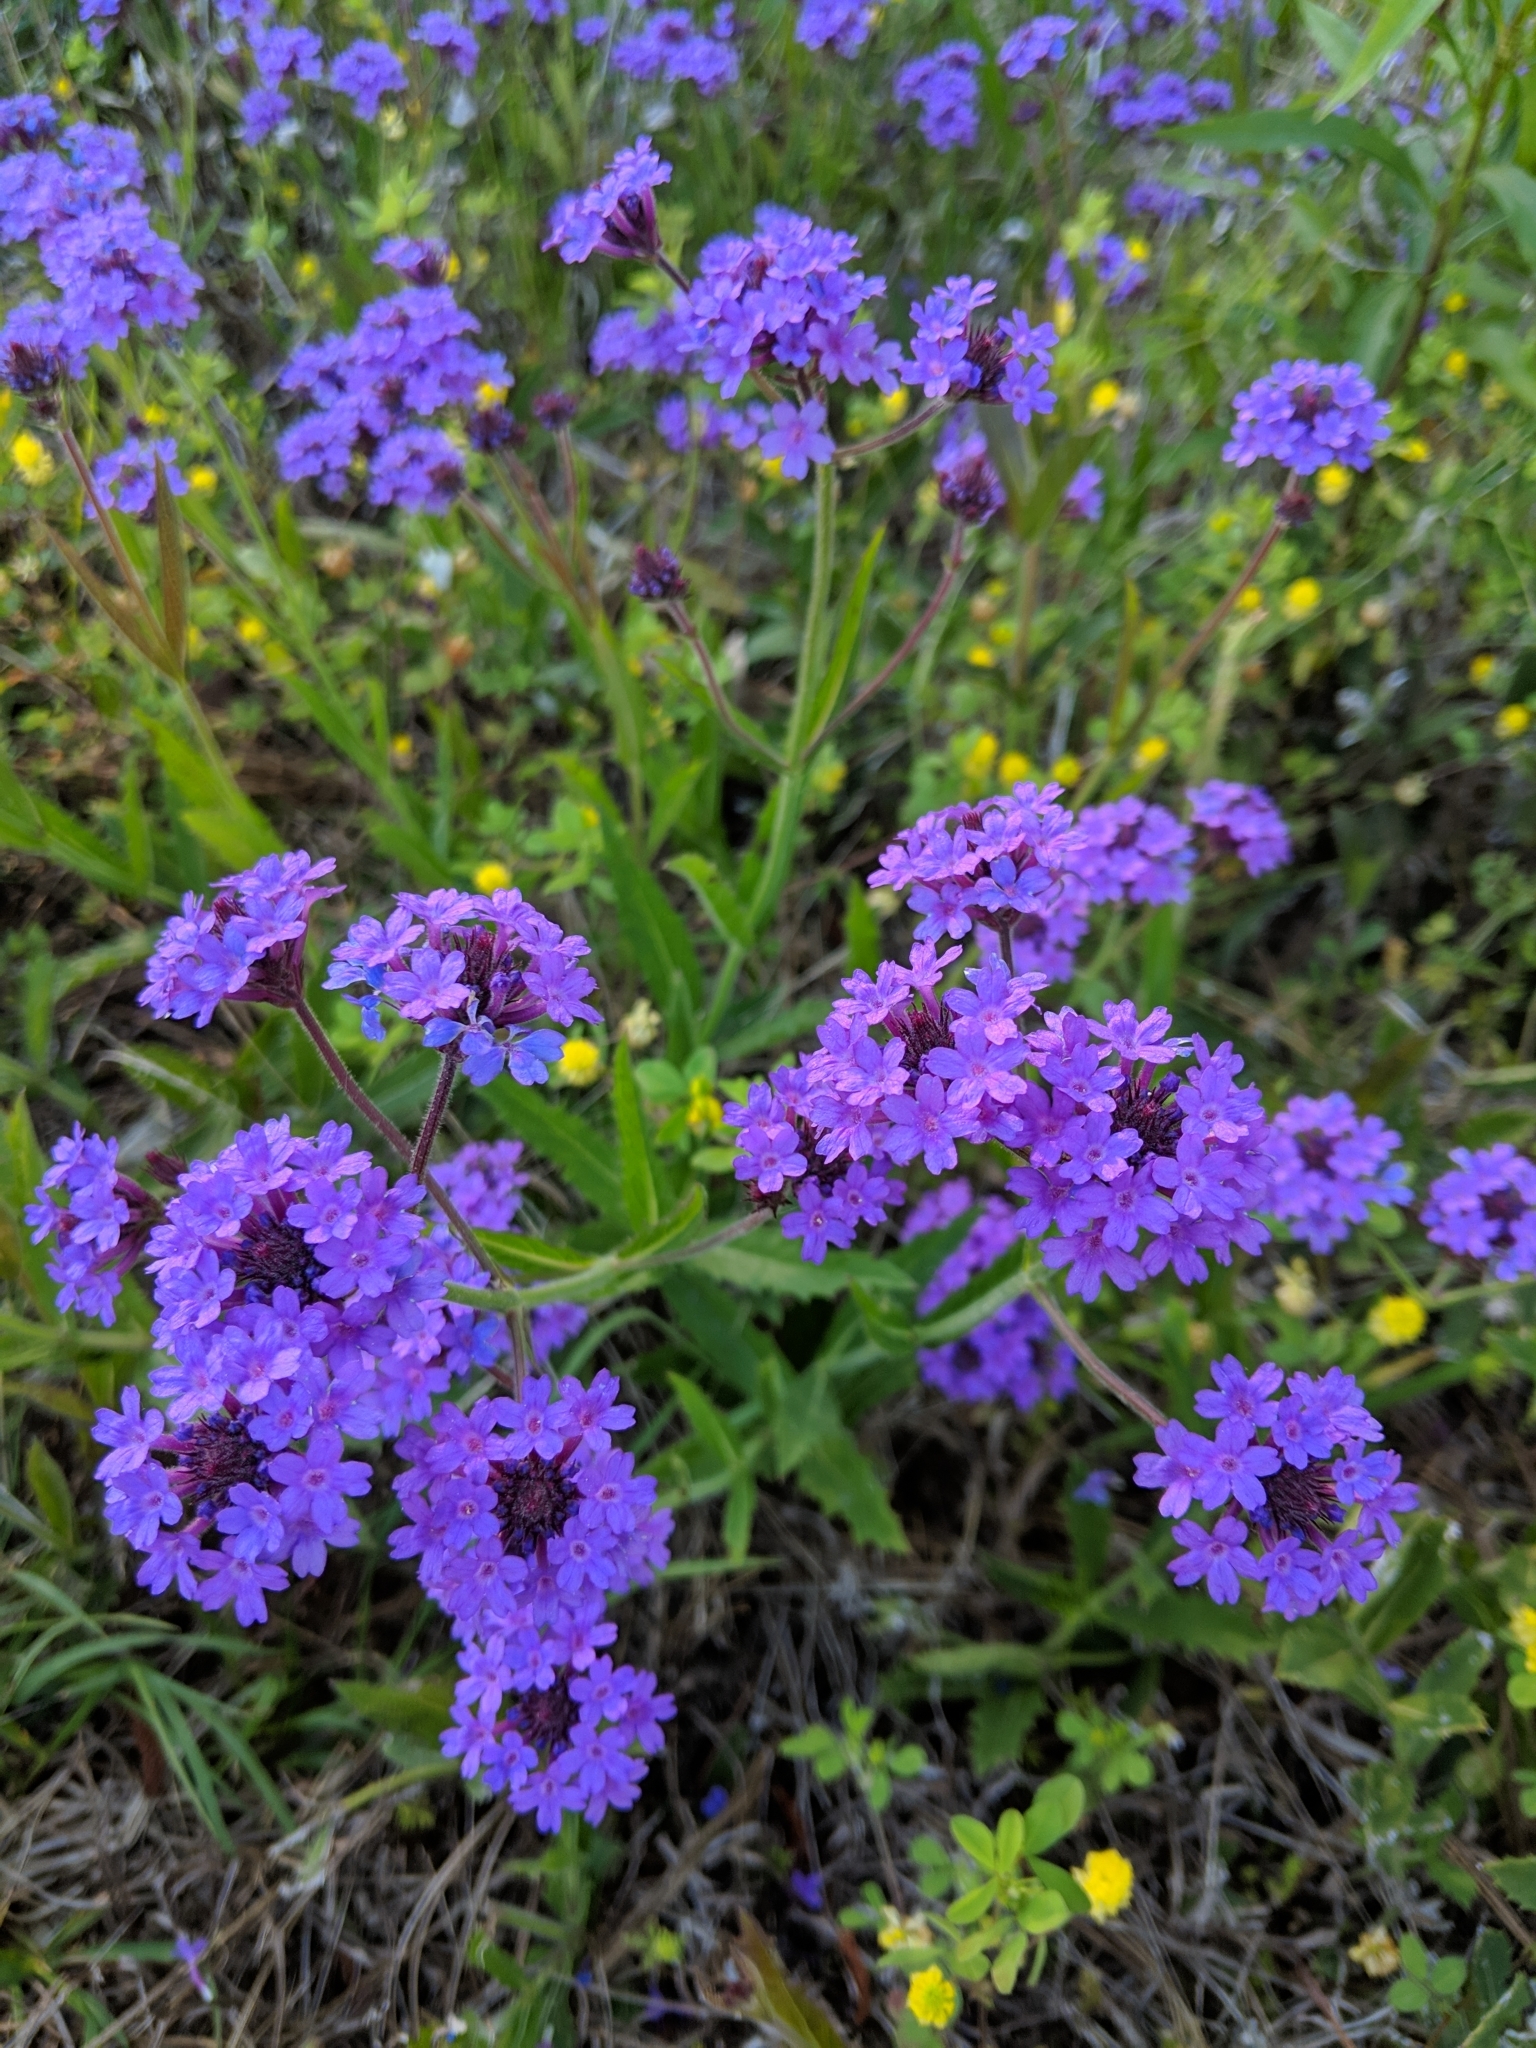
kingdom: Plantae
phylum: Tracheophyta
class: Magnoliopsida
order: Lamiales
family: Verbenaceae
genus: Verbena
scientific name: Verbena rigida
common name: Slender vervain
